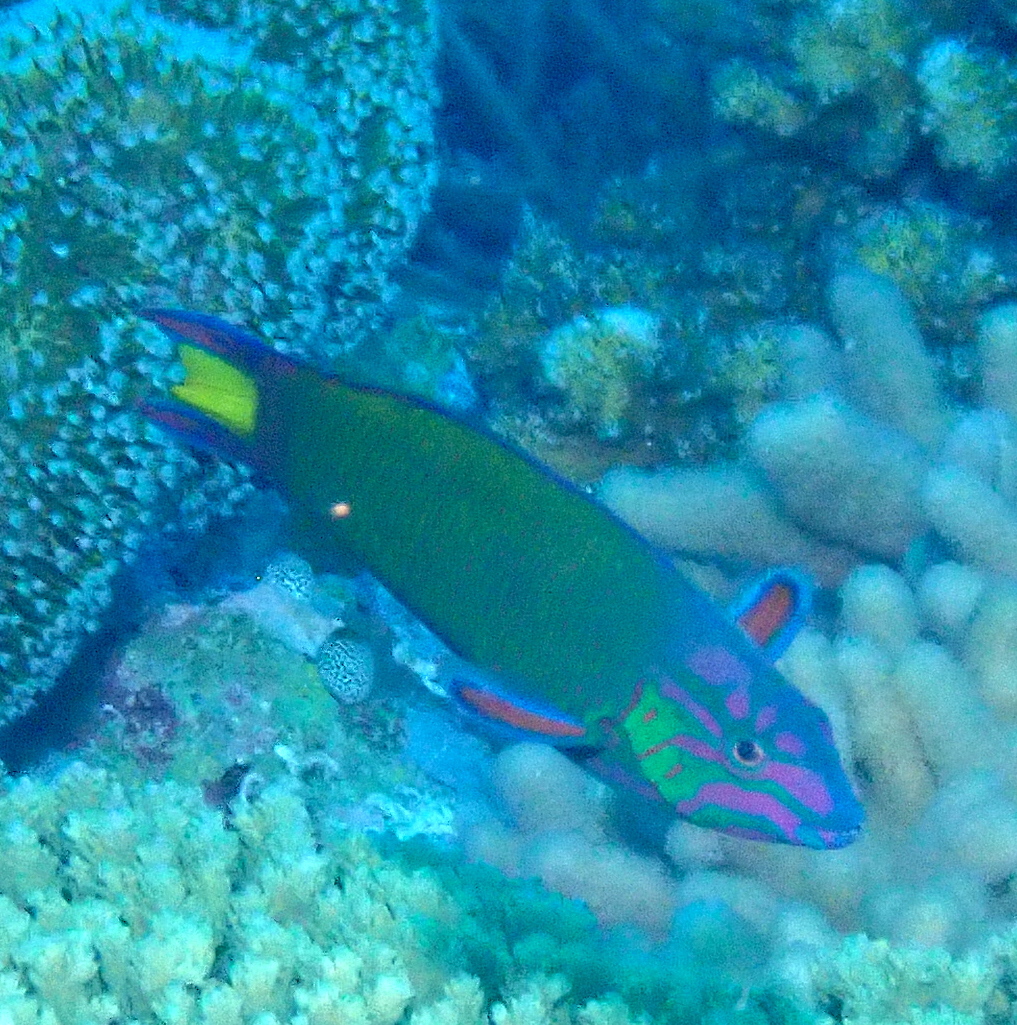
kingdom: Animalia
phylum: Chordata
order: Perciformes
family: Labridae
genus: Thalassoma
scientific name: Thalassoma lunare
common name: Blue wrasse
